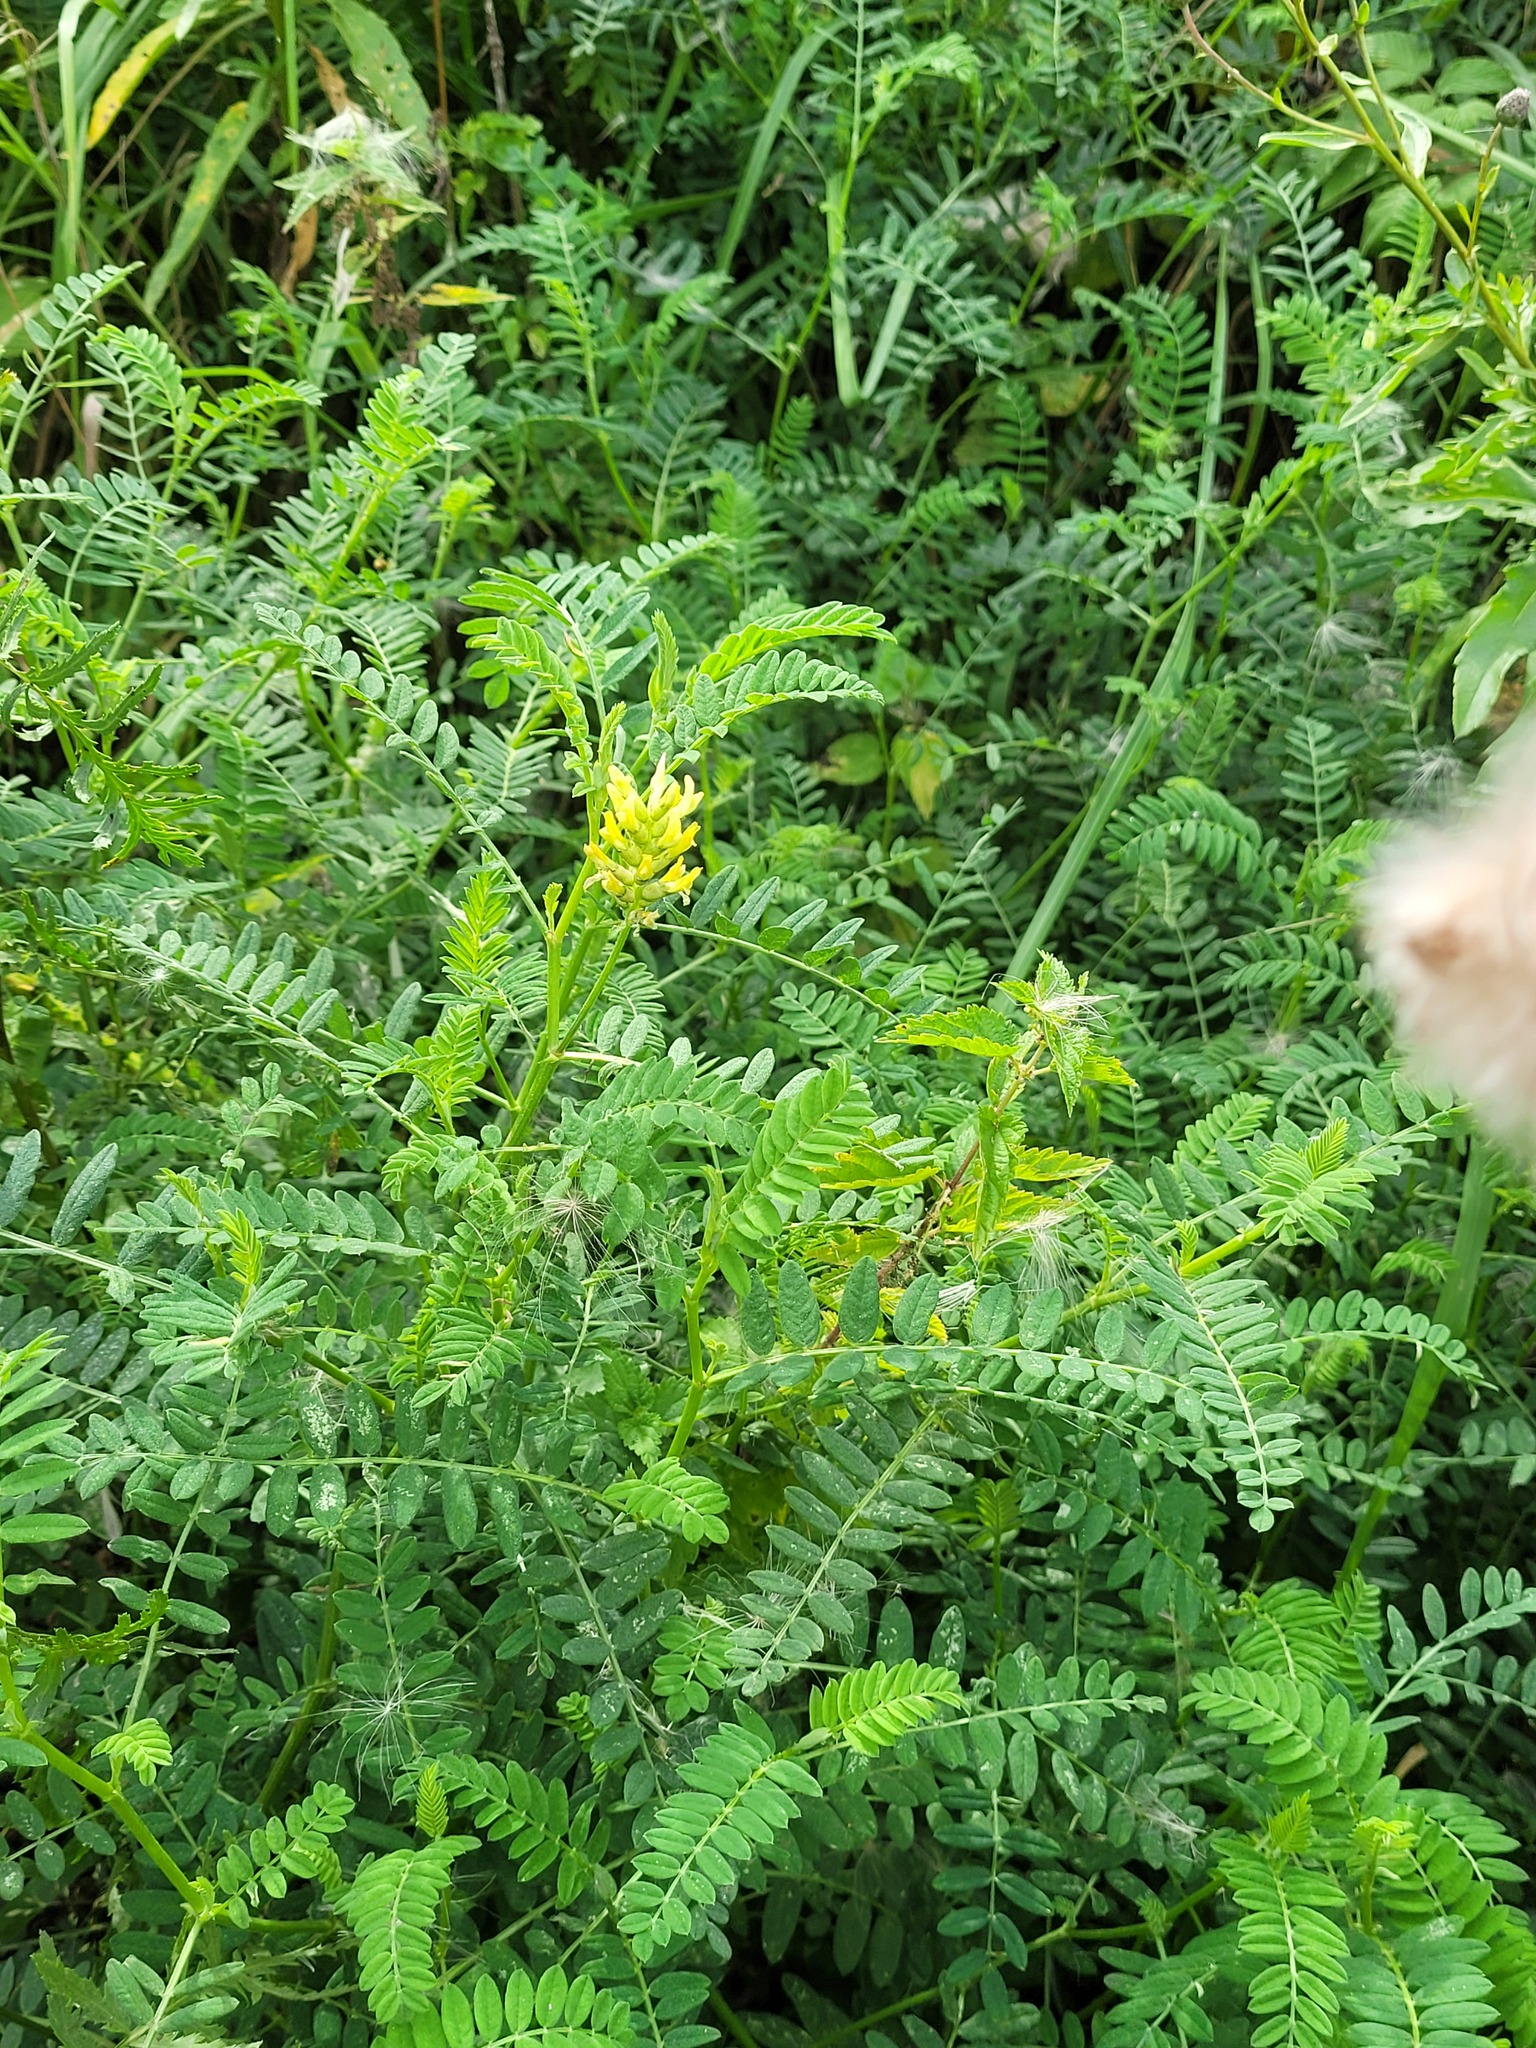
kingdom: Plantae
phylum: Tracheophyta
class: Magnoliopsida
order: Fabales
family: Fabaceae
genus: Astragalus
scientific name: Astragalus cicer
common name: Chick-pea milk-vetch
